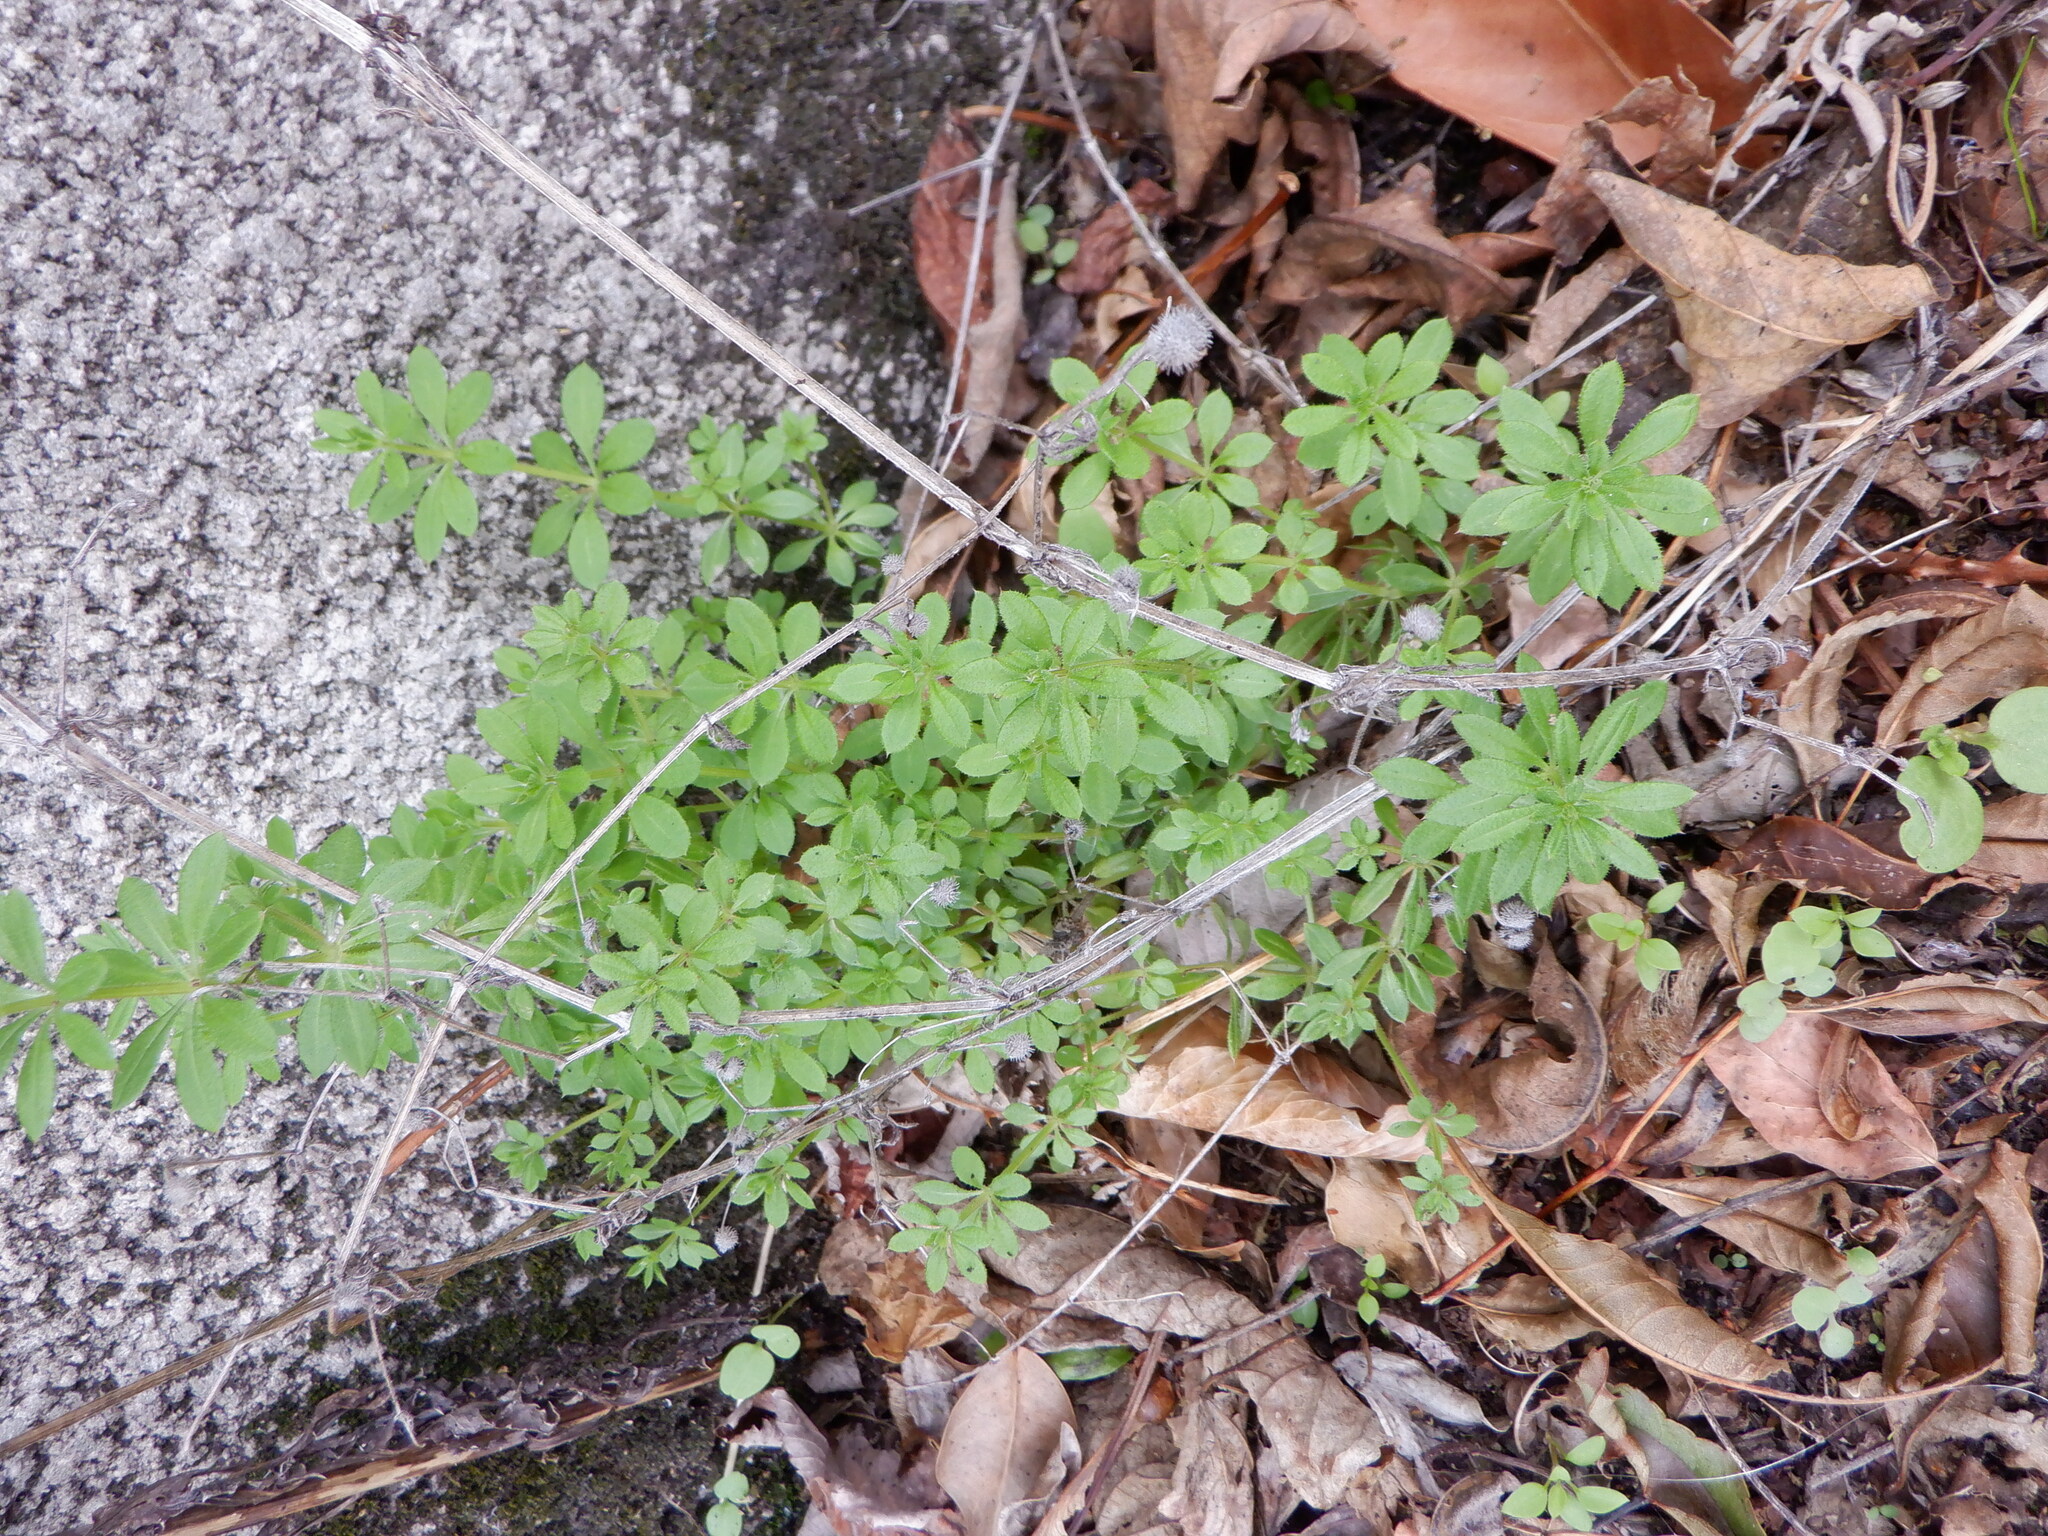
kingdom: Plantae
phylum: Tracheophyta
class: Magnoliopsida
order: Gentianales
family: Rubiaceae
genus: Galium
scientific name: Galium aparine
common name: Cleavers
